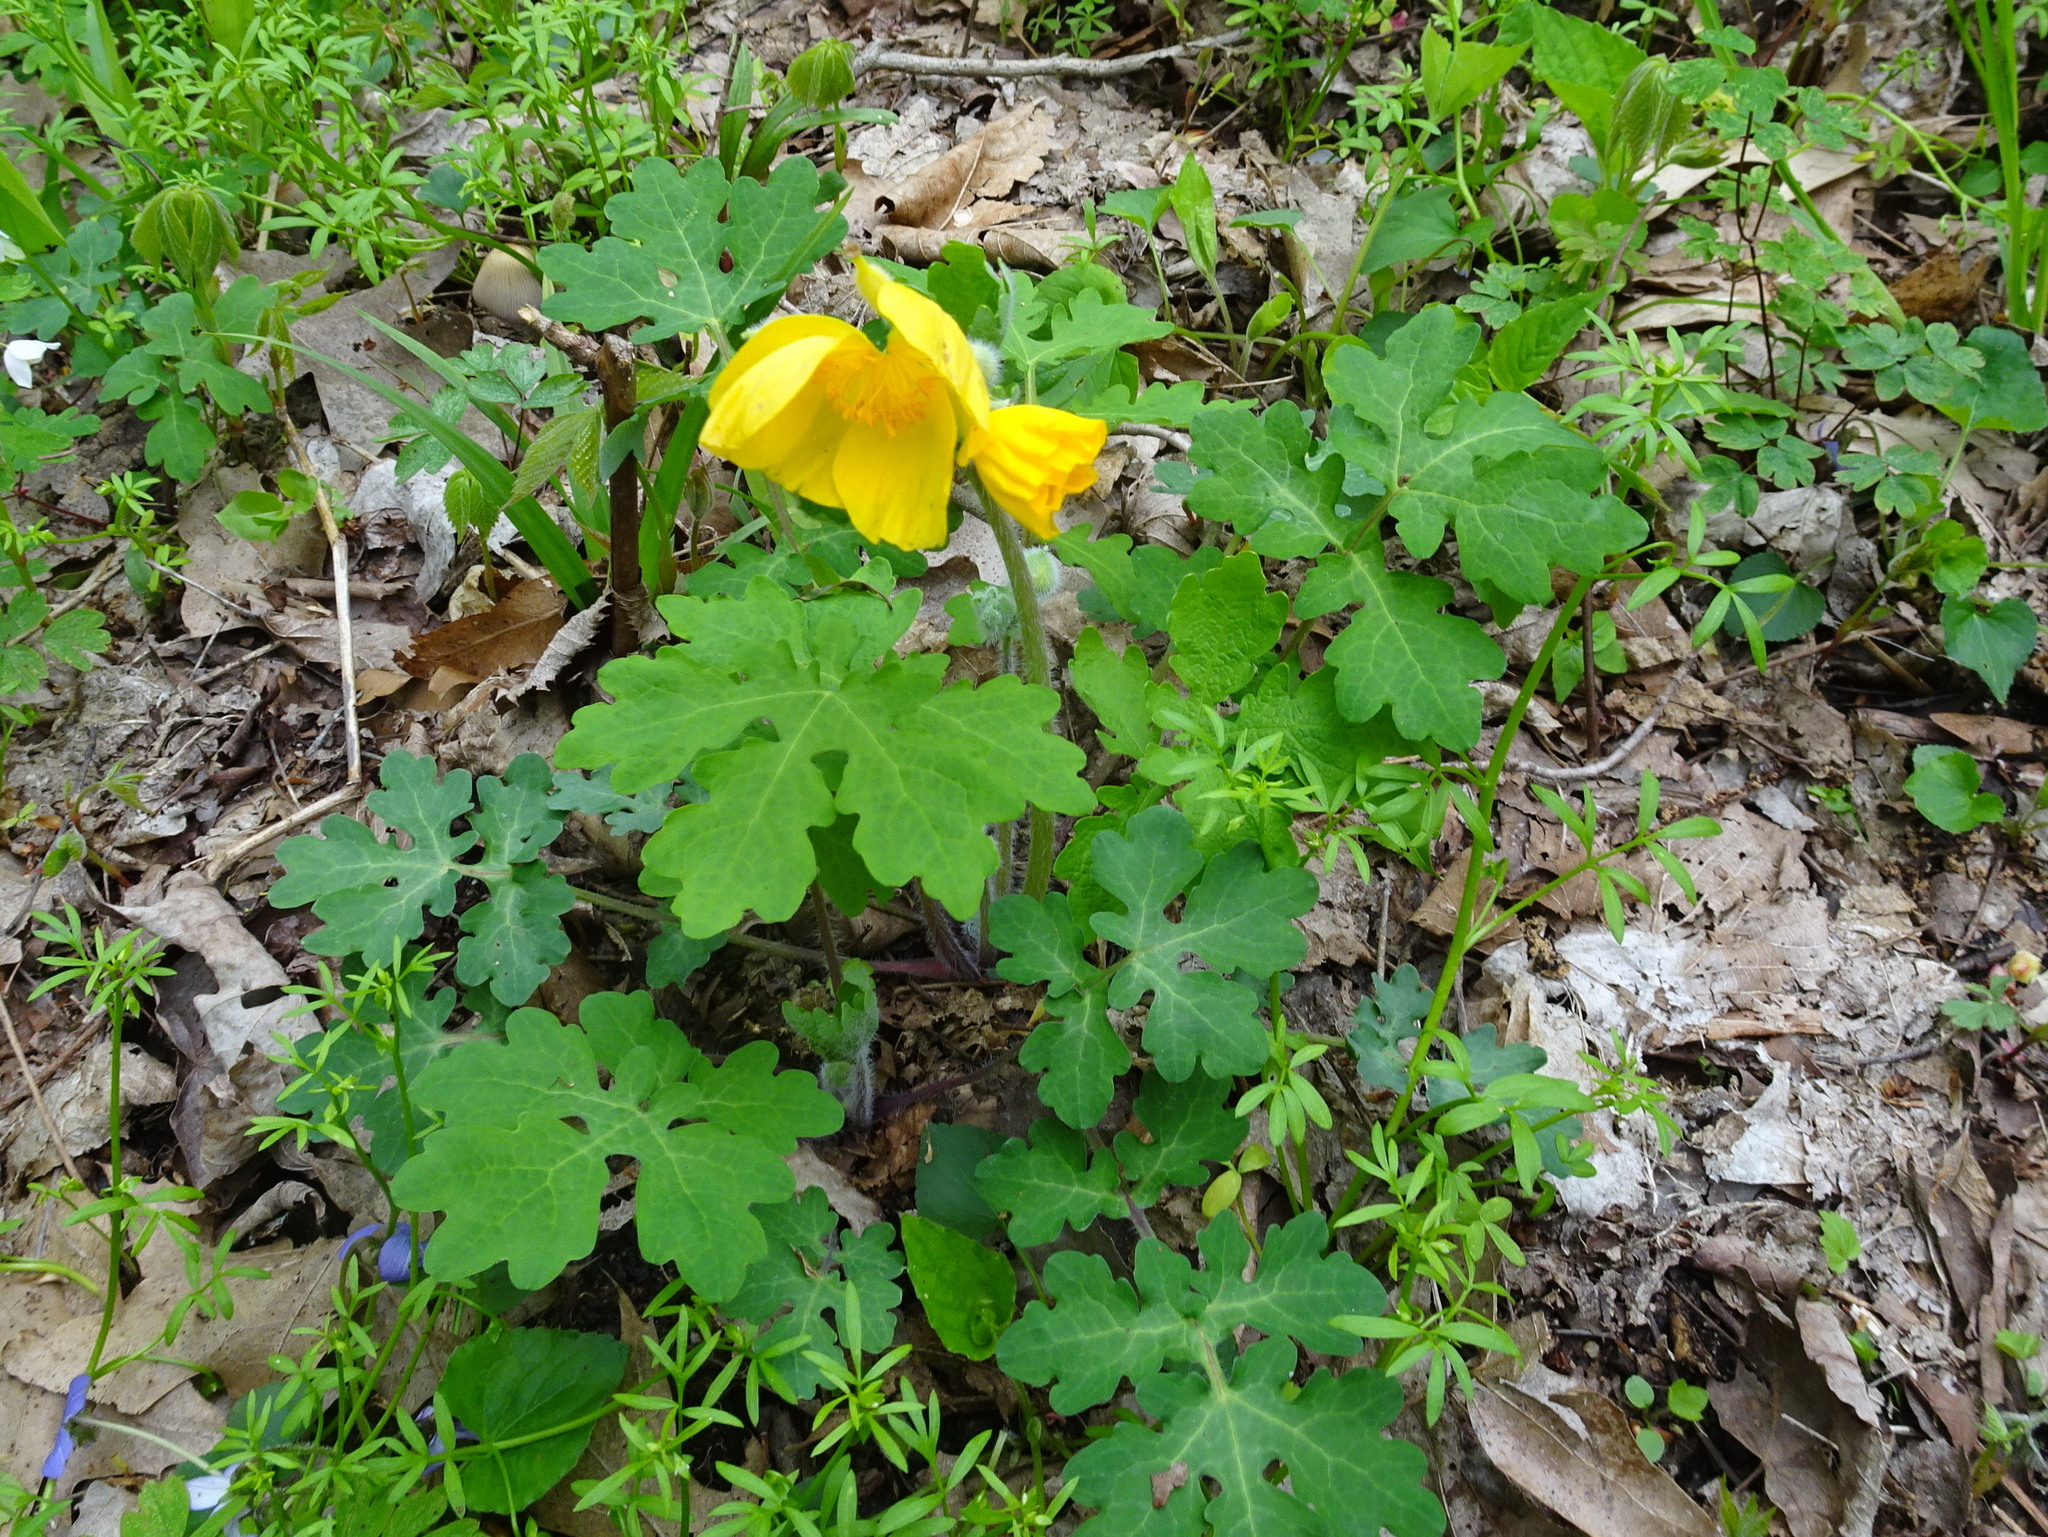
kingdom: Plantae
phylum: Tracheophyta
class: Magnoliopsida
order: Ranunculales
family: Papaveraceae
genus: Stylophorum
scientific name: Stylophorum diphyllum
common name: Celandine poppy
